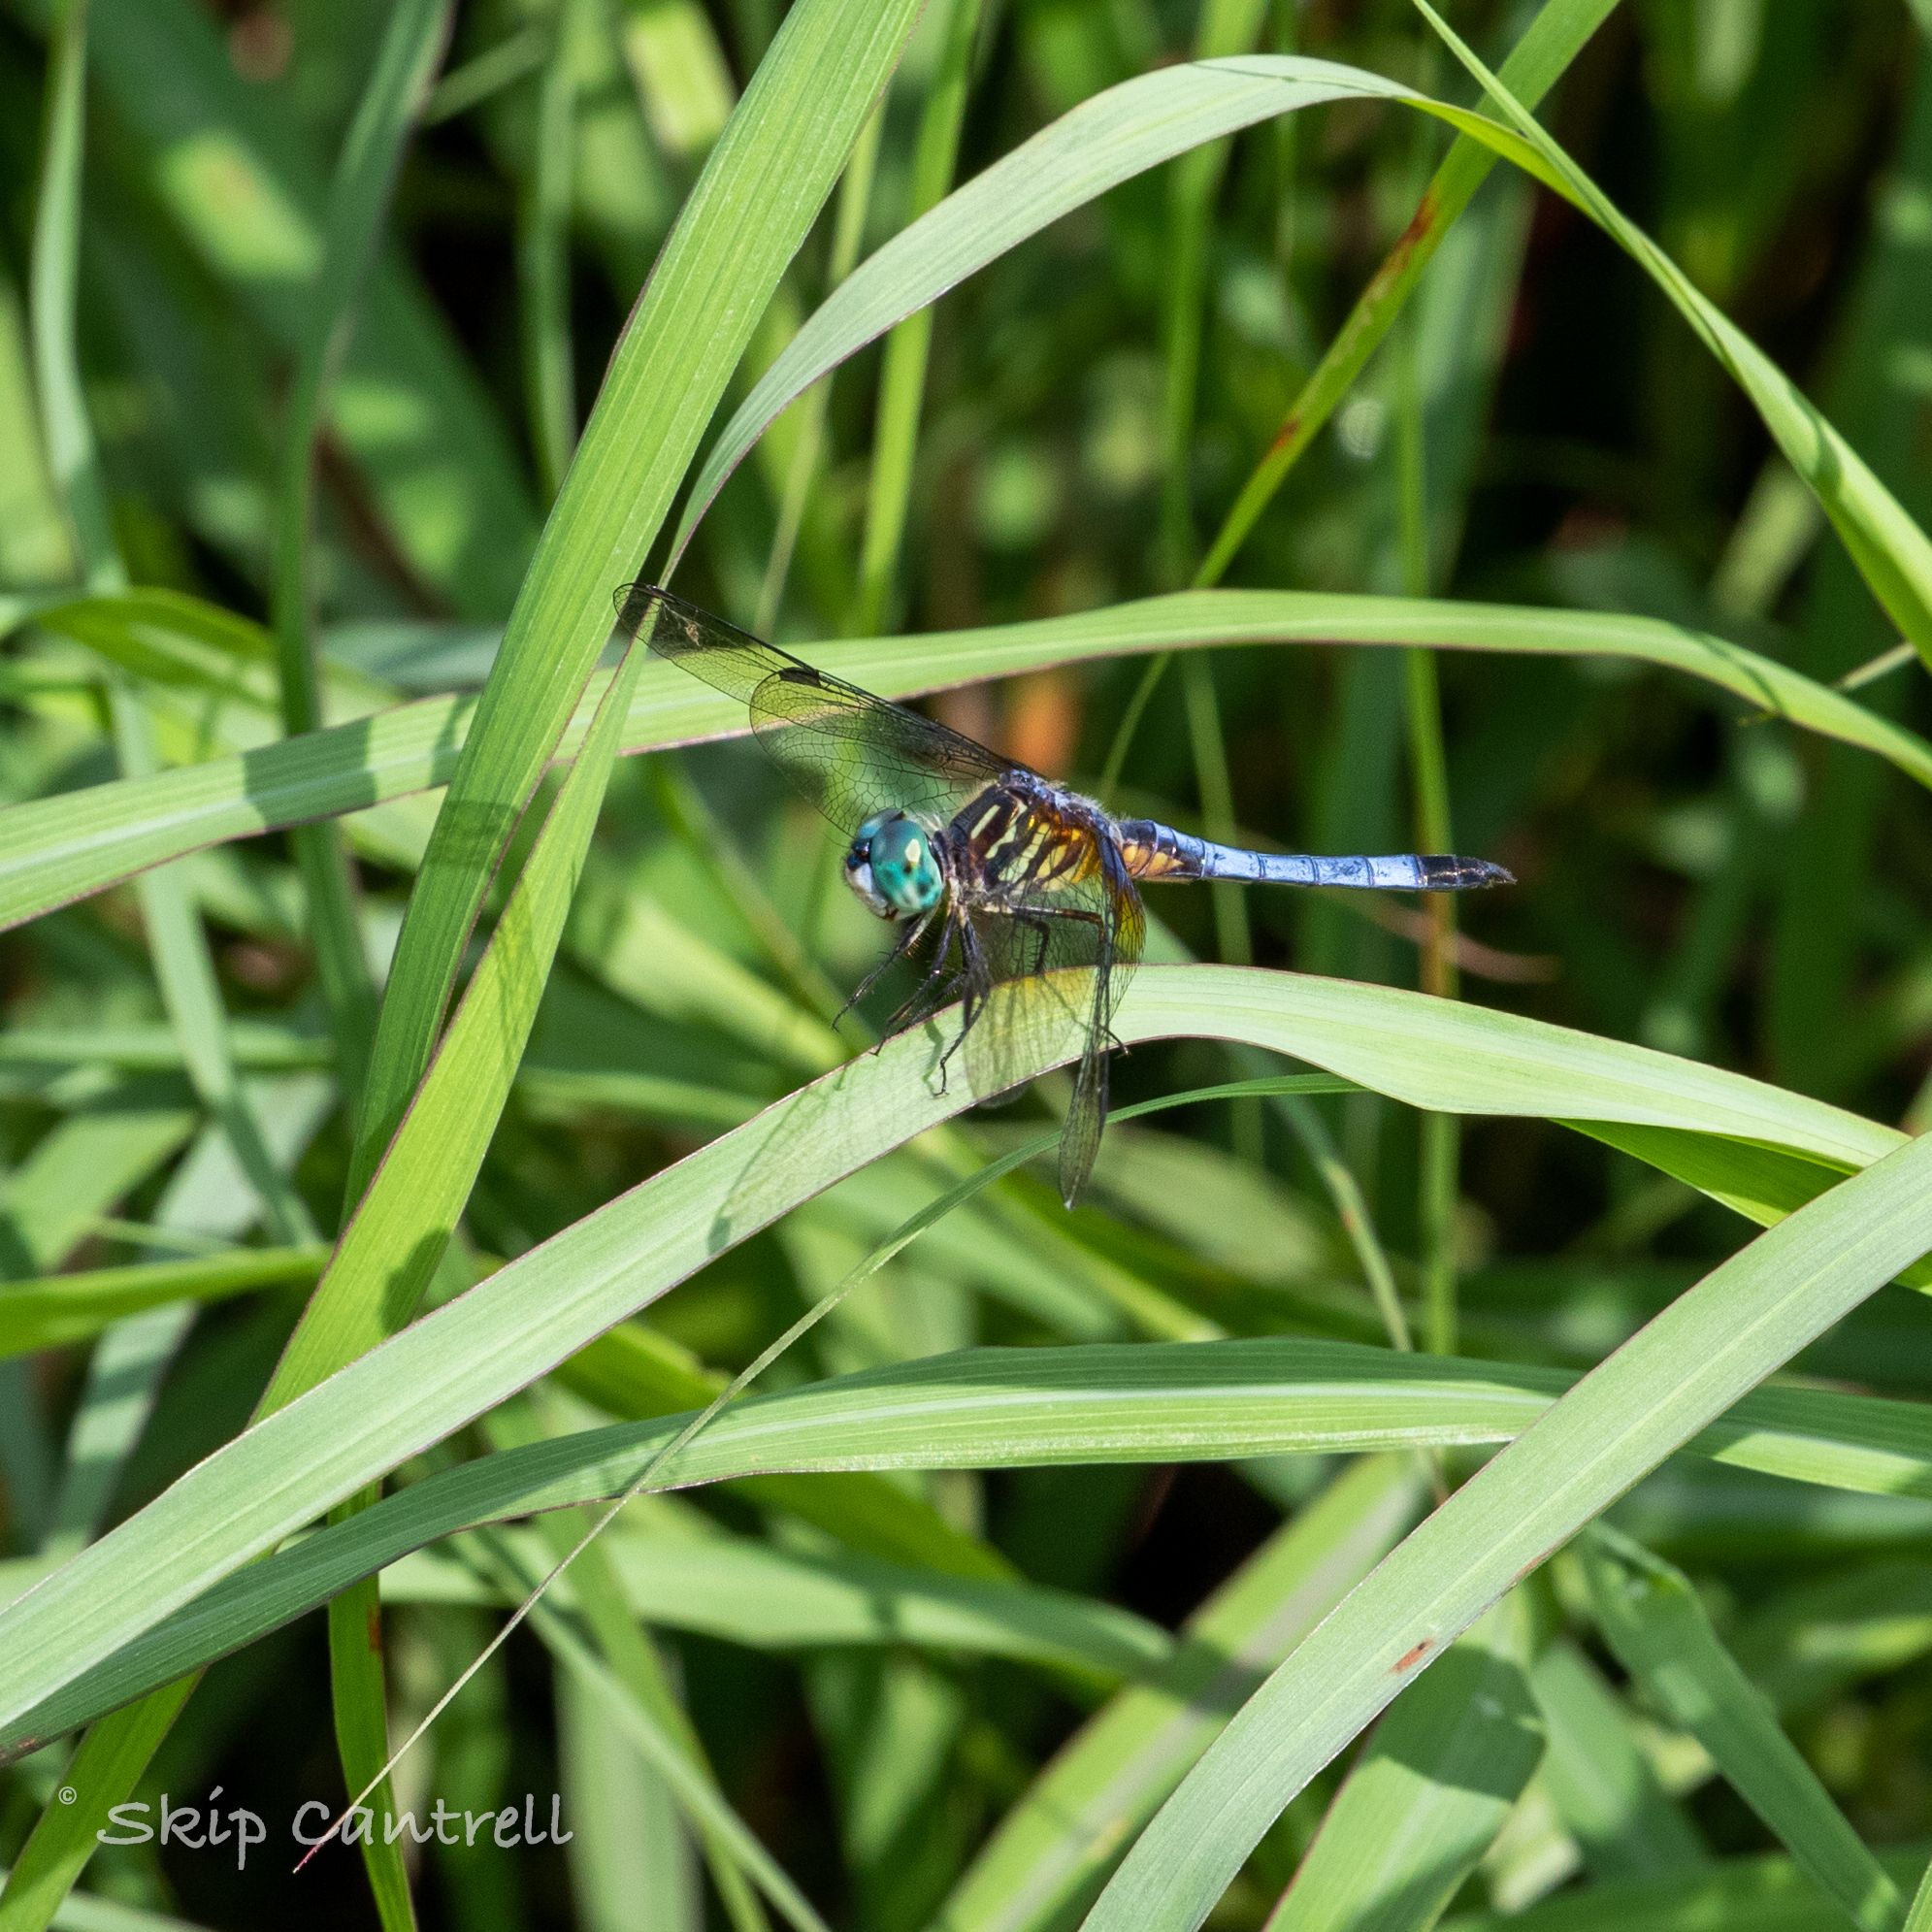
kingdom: Animalia
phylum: Arthropoda
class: Insecta
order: Odonata
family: Libellulidae
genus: Pachydiplax
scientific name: Pachydiplax longipennis
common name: Blue dasher
